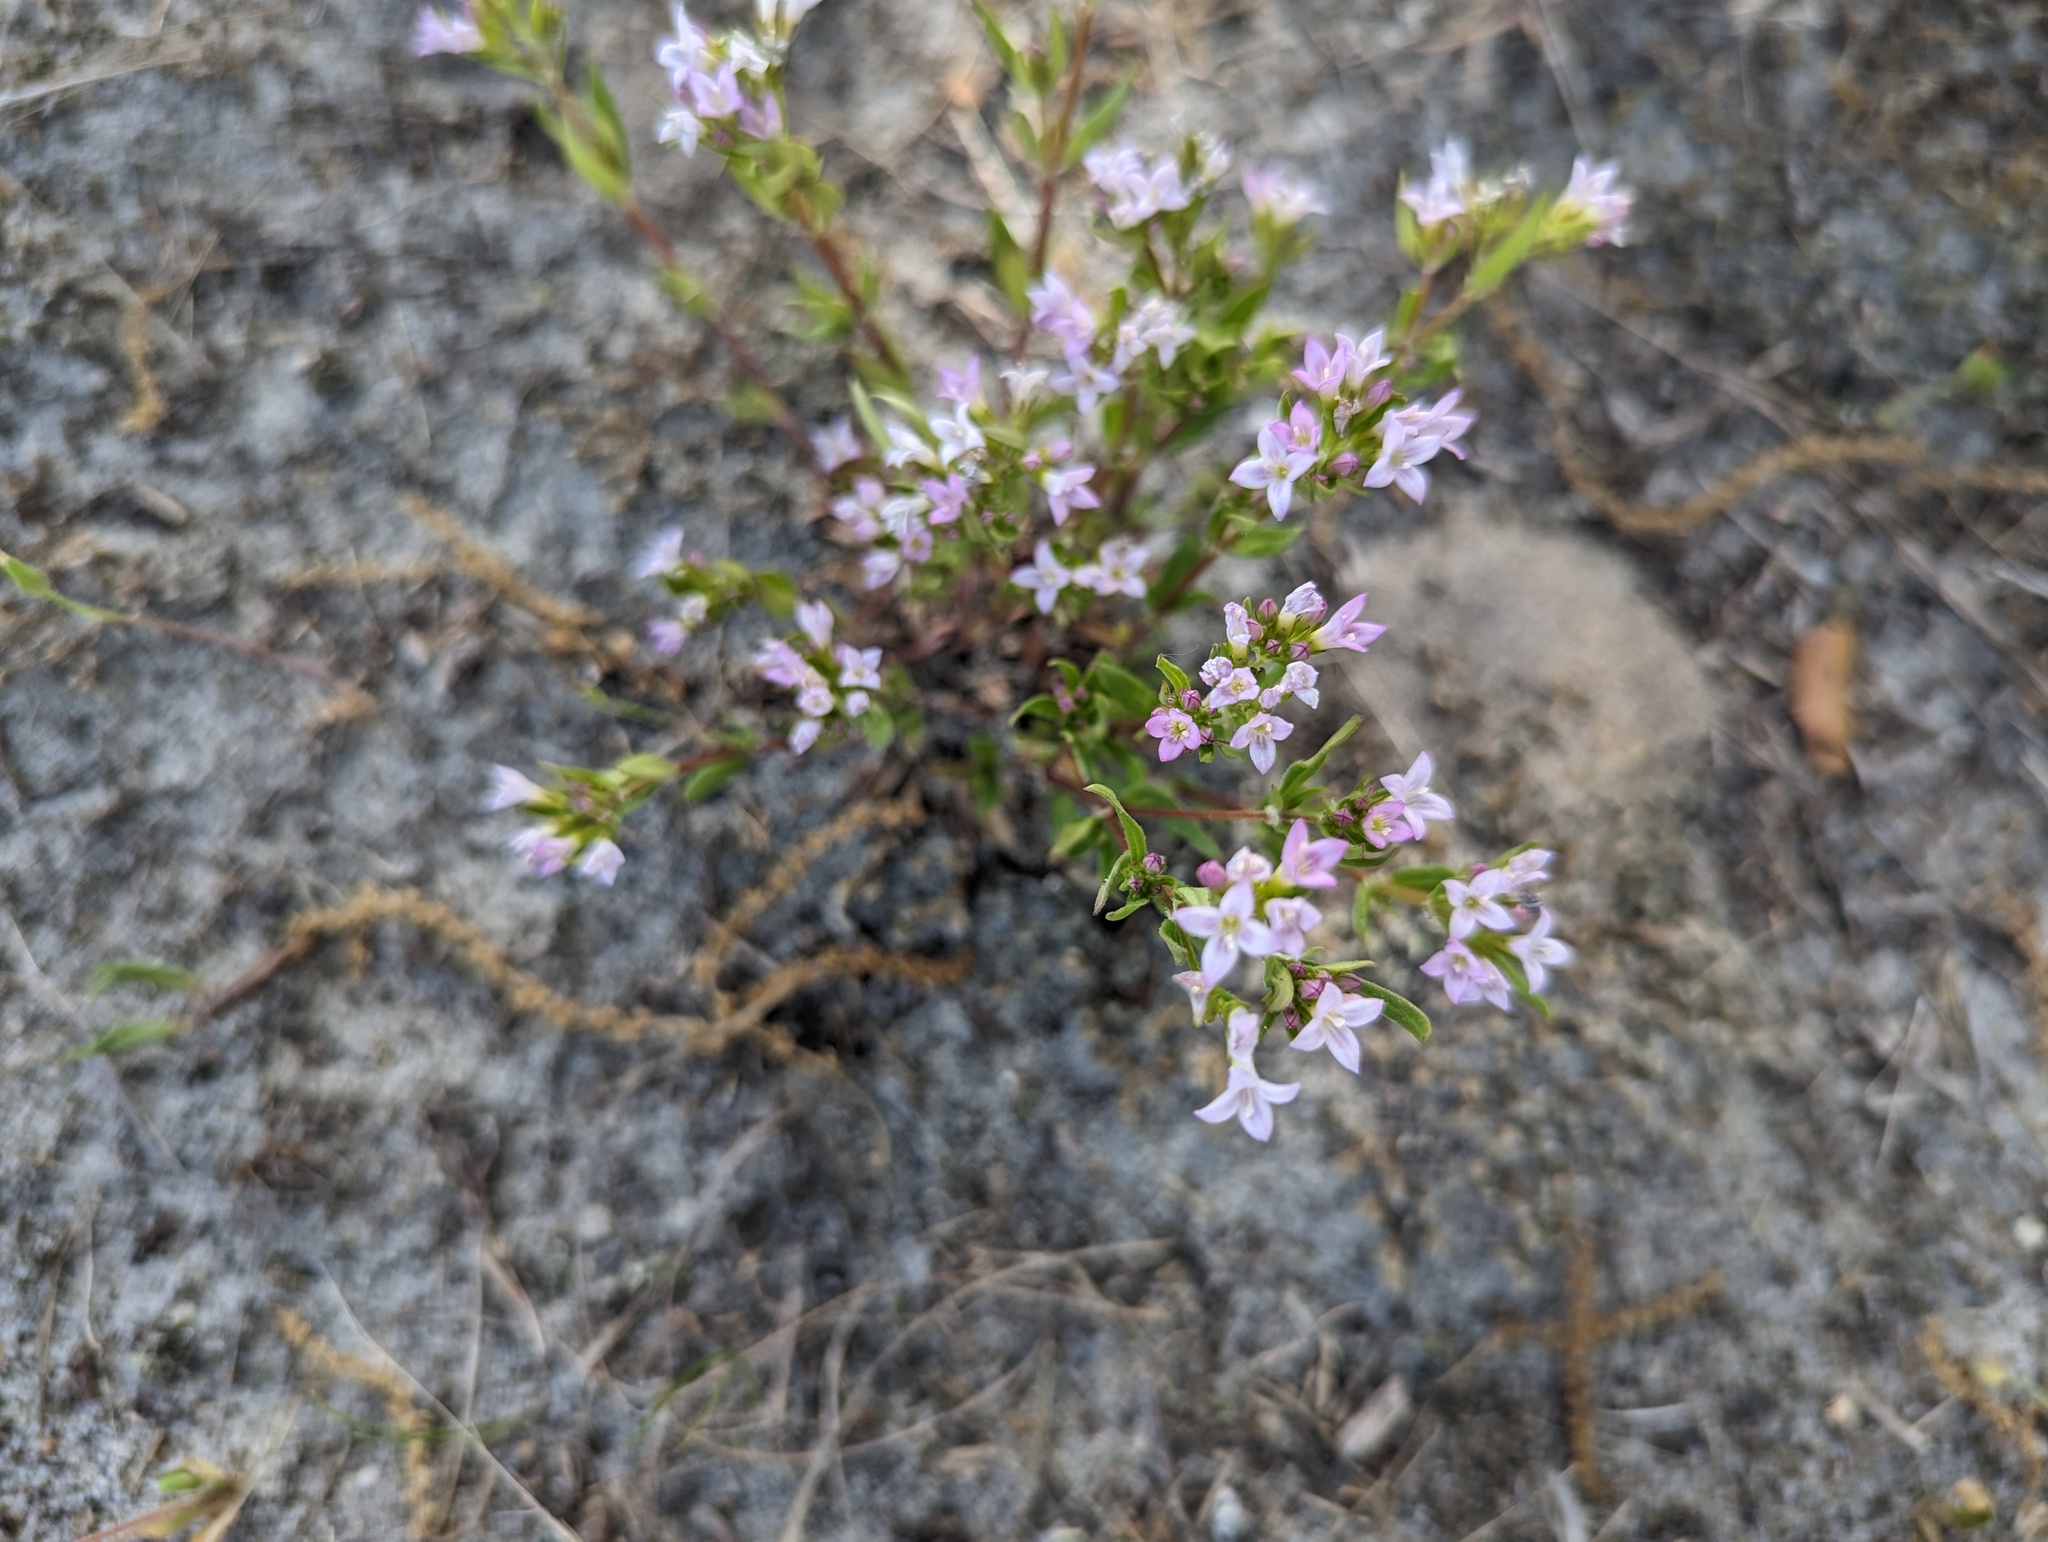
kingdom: Plantae
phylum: Tracheophyta
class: Magnoliopsida
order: Gentianales
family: Rubiaceae
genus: Houstonia
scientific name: Houstonia canadensis
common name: Fringed houstonia
